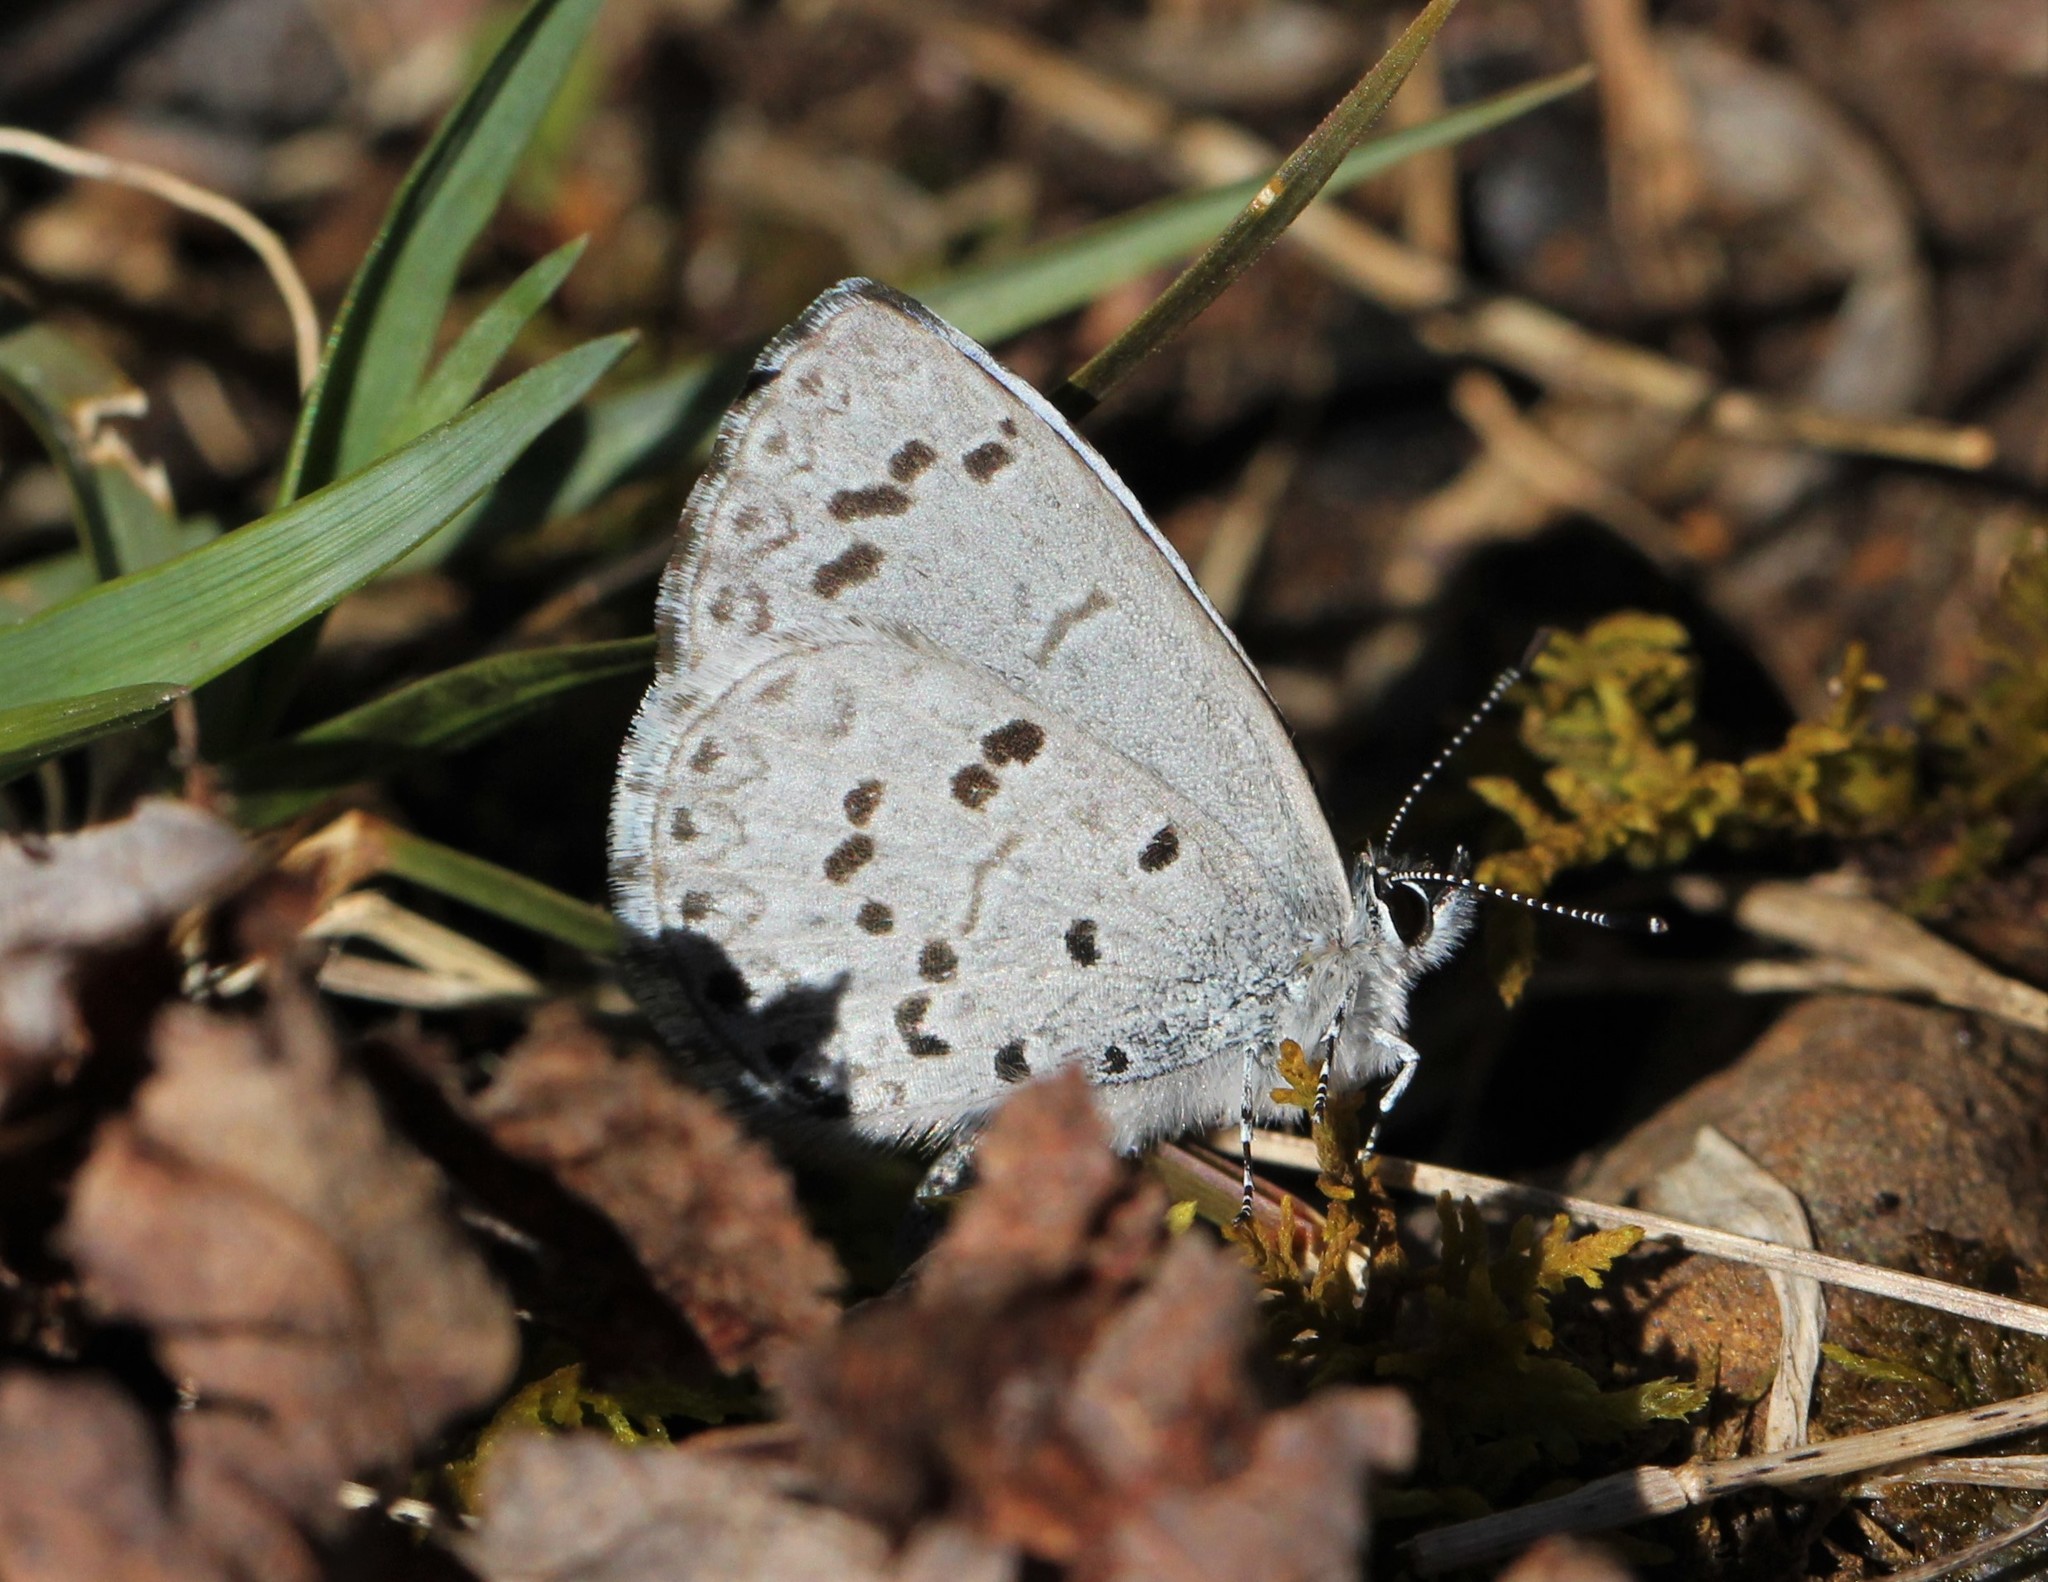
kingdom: Animalia
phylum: Arthropoda
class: Insecta
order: Lepidoptera
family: Lycaenidae
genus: Cyaniris
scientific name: Cyaniris neglecta
